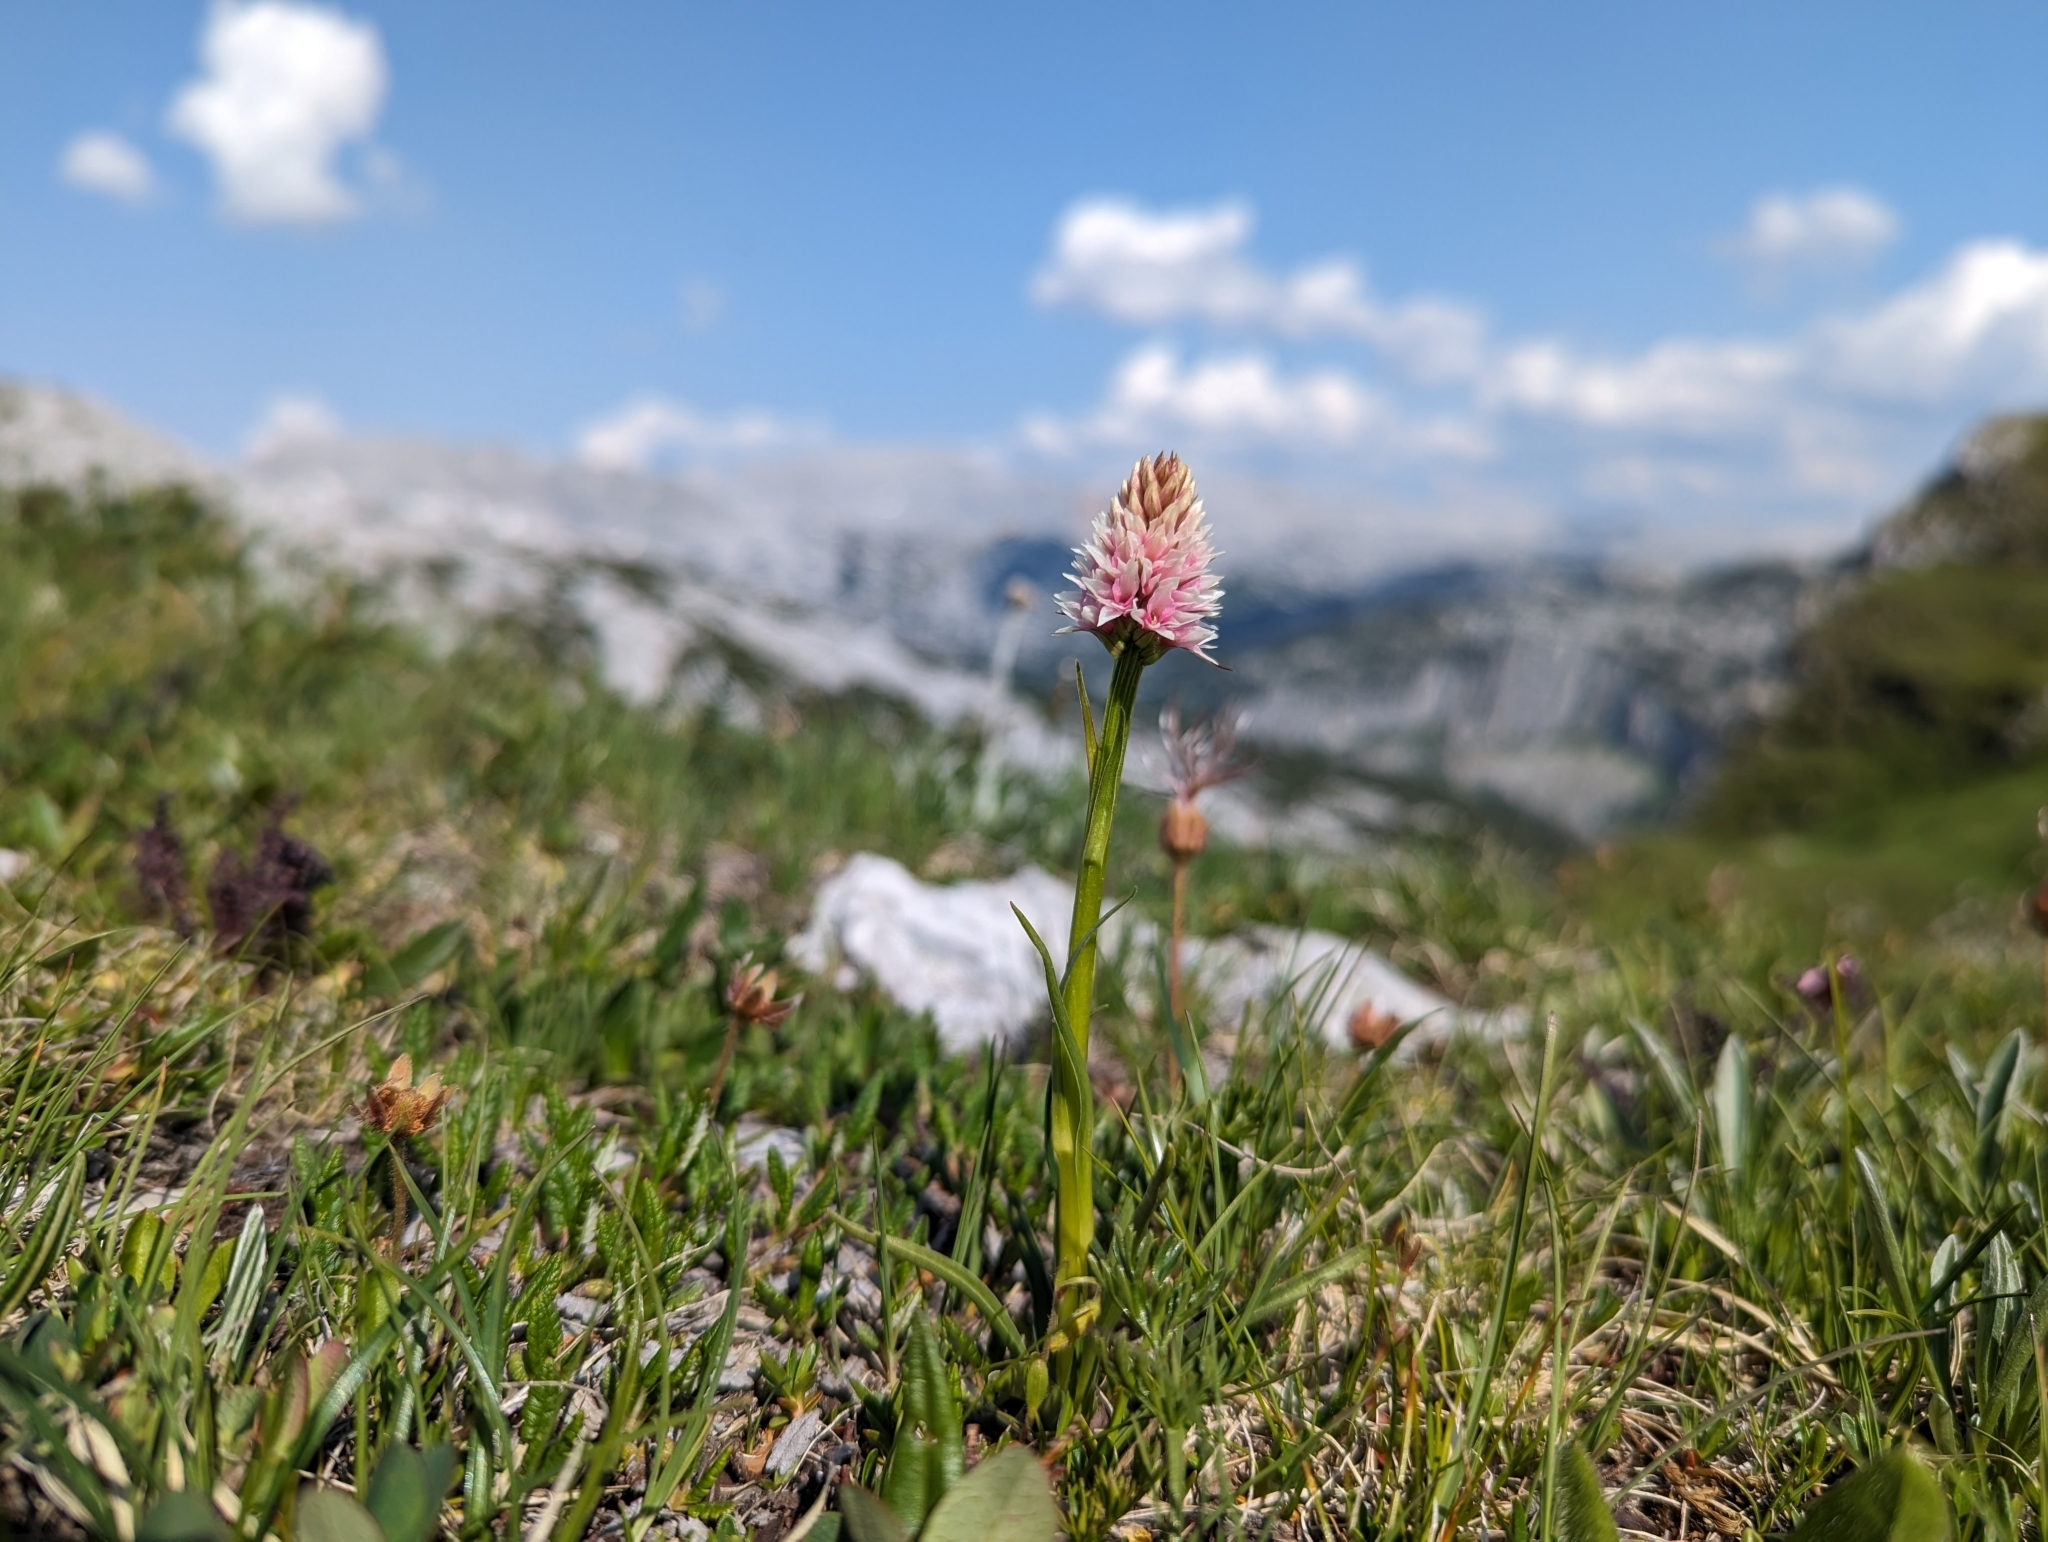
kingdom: Plantae
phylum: Tracheophyta
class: Liliopsida
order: Asparagales
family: Orchidaceae
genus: Gymnadenia
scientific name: Gymnadenia stiriaca
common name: Austrian gymnadenia
